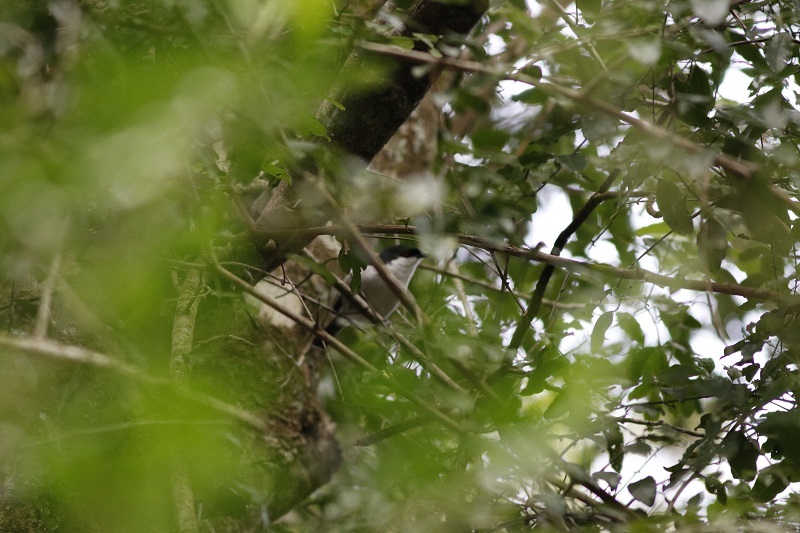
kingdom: Animalia
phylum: Chordata
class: Aves
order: Passeriformes
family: Malaconotidae
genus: Dryoscopus
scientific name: Dryoscopus cubla
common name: Black-backed puffback
